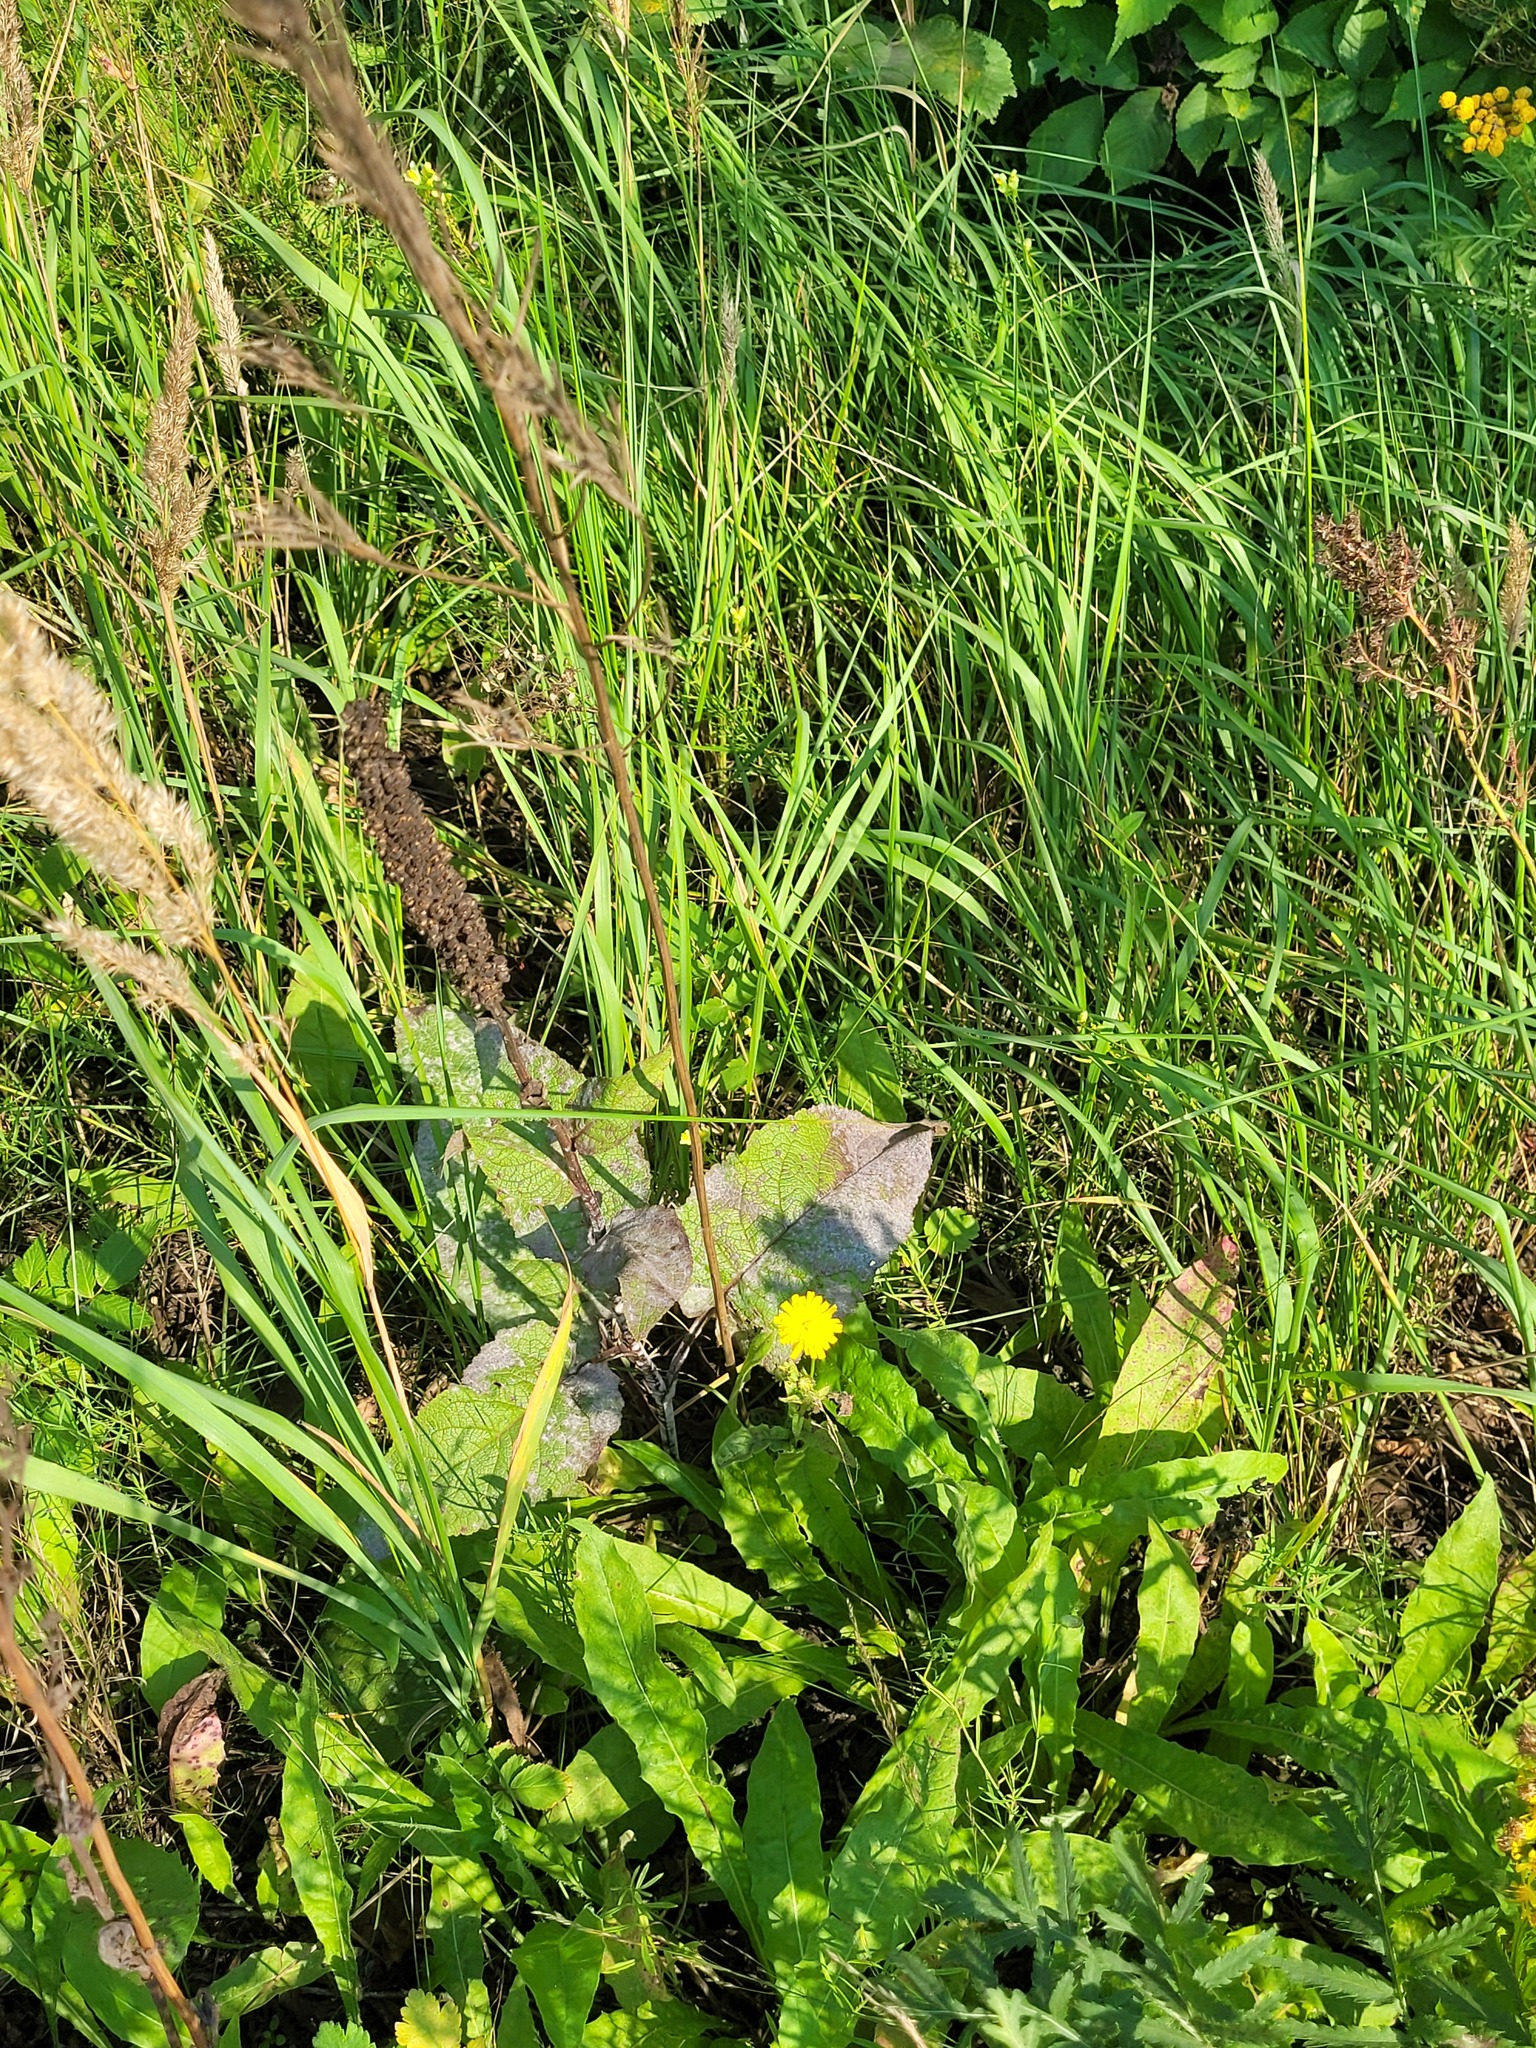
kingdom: Plantae
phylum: Tracheophyta
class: Magnoliopsida
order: Lamiales
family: Scrophulariaceae
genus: Verbascum
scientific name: Verbascum nigrum
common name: Dark mullein
